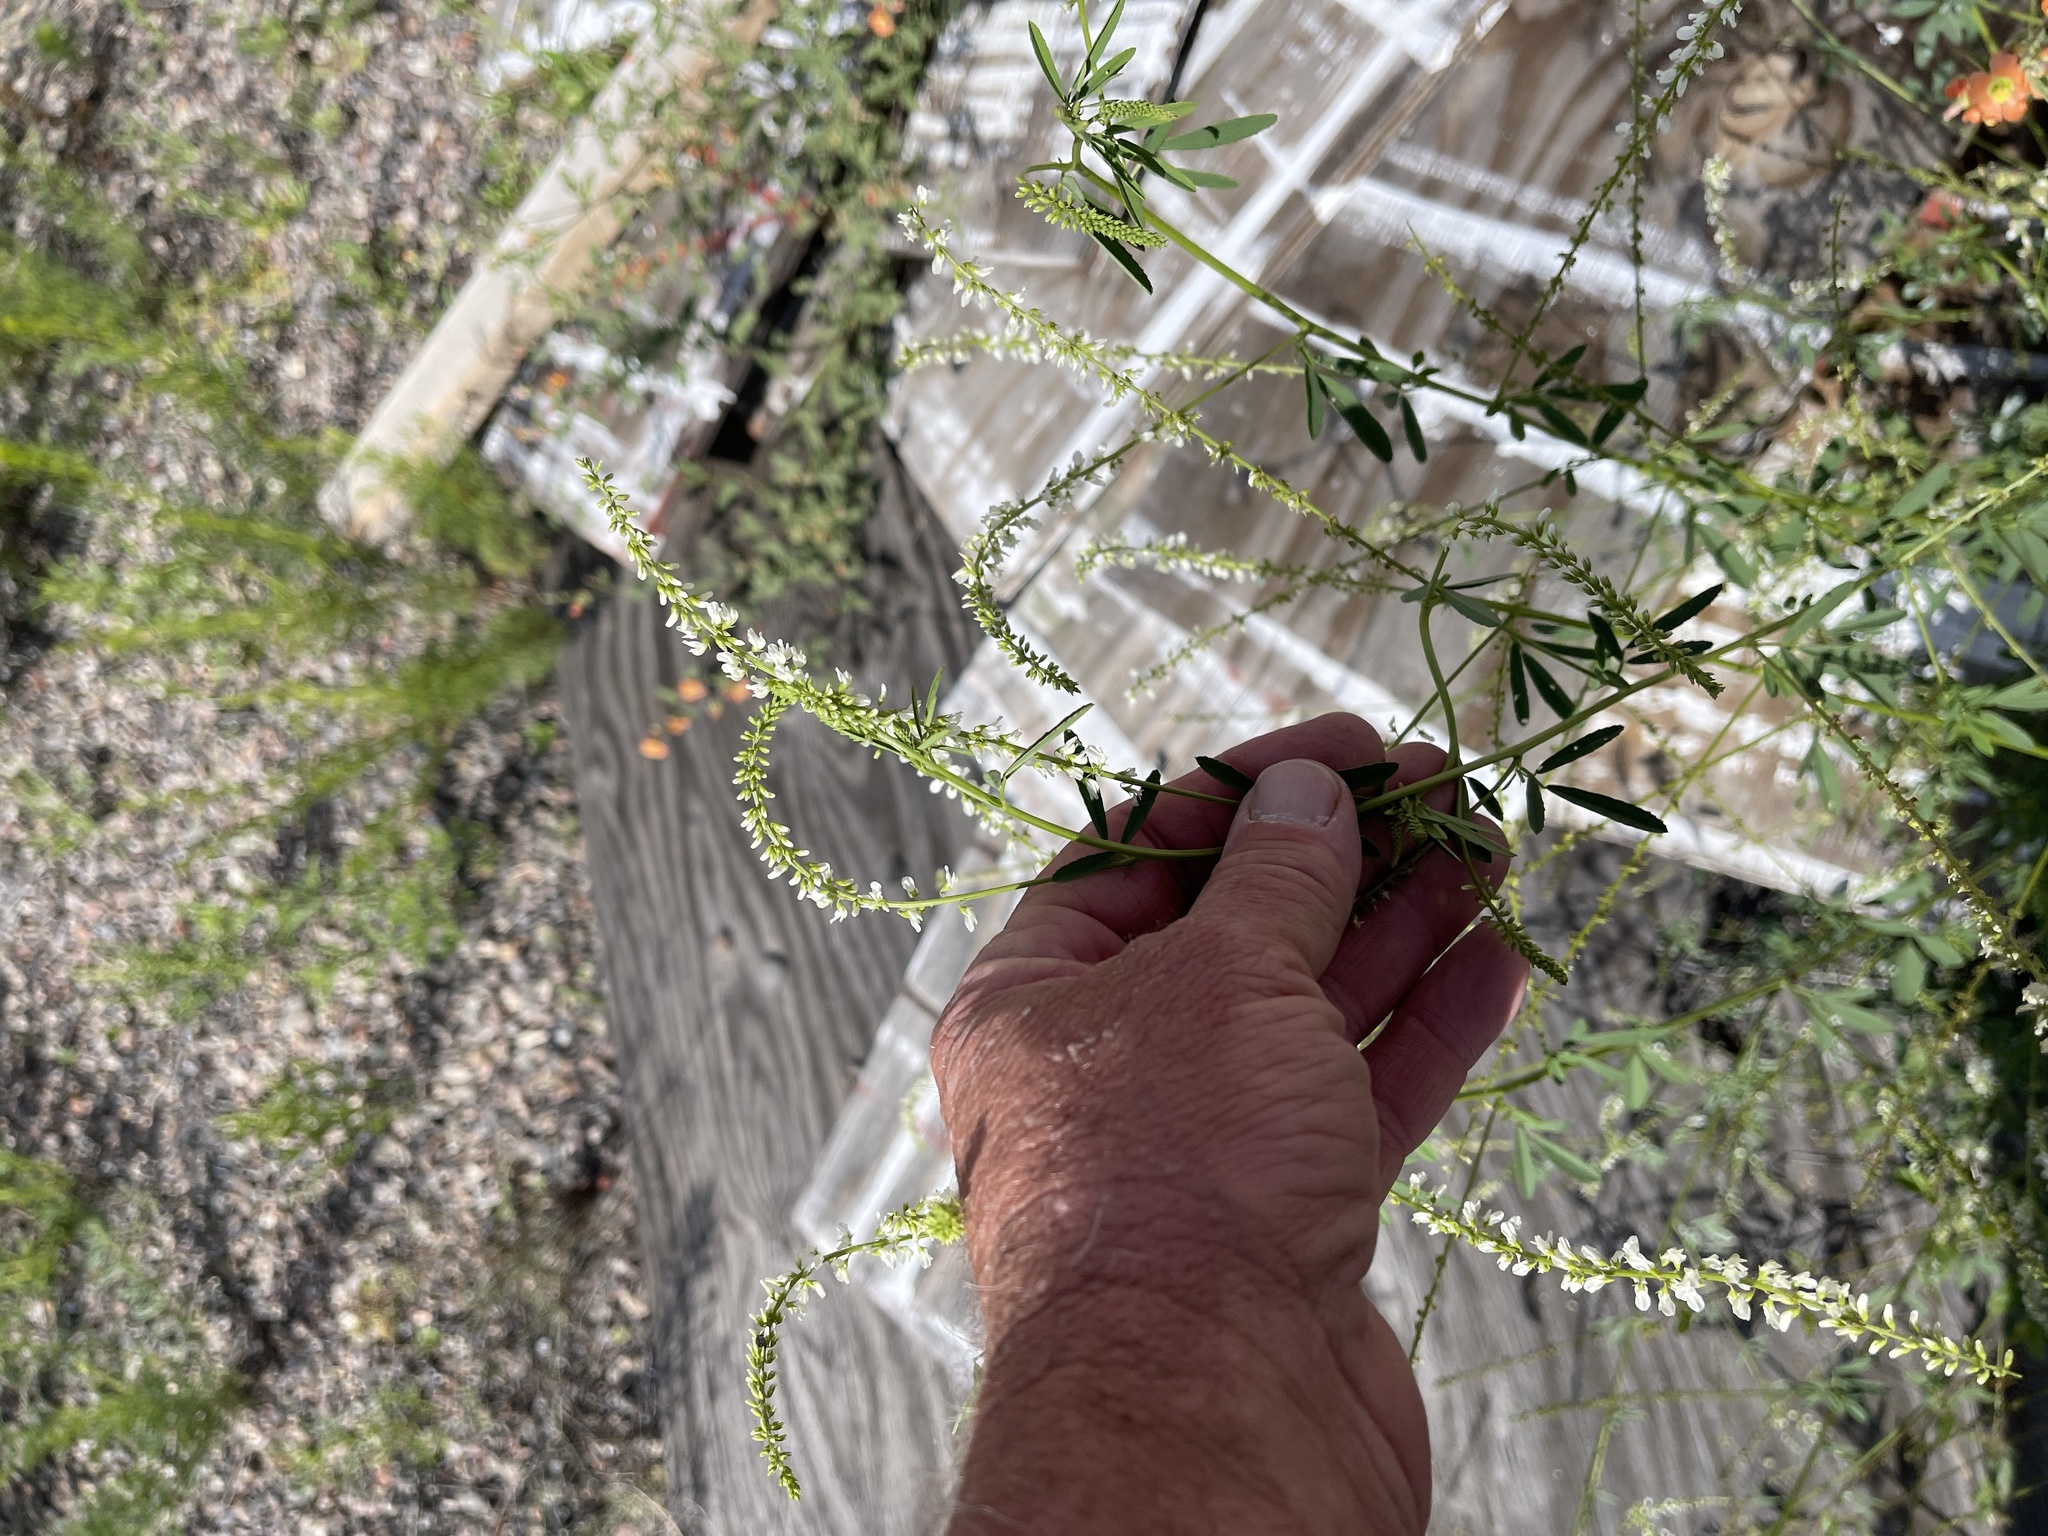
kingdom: Plantae
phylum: Tracheophyta
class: Magnoliopsida
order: Fabales
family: Fabaceae
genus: Melilotus
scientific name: Melilotus albus
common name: White melilot
